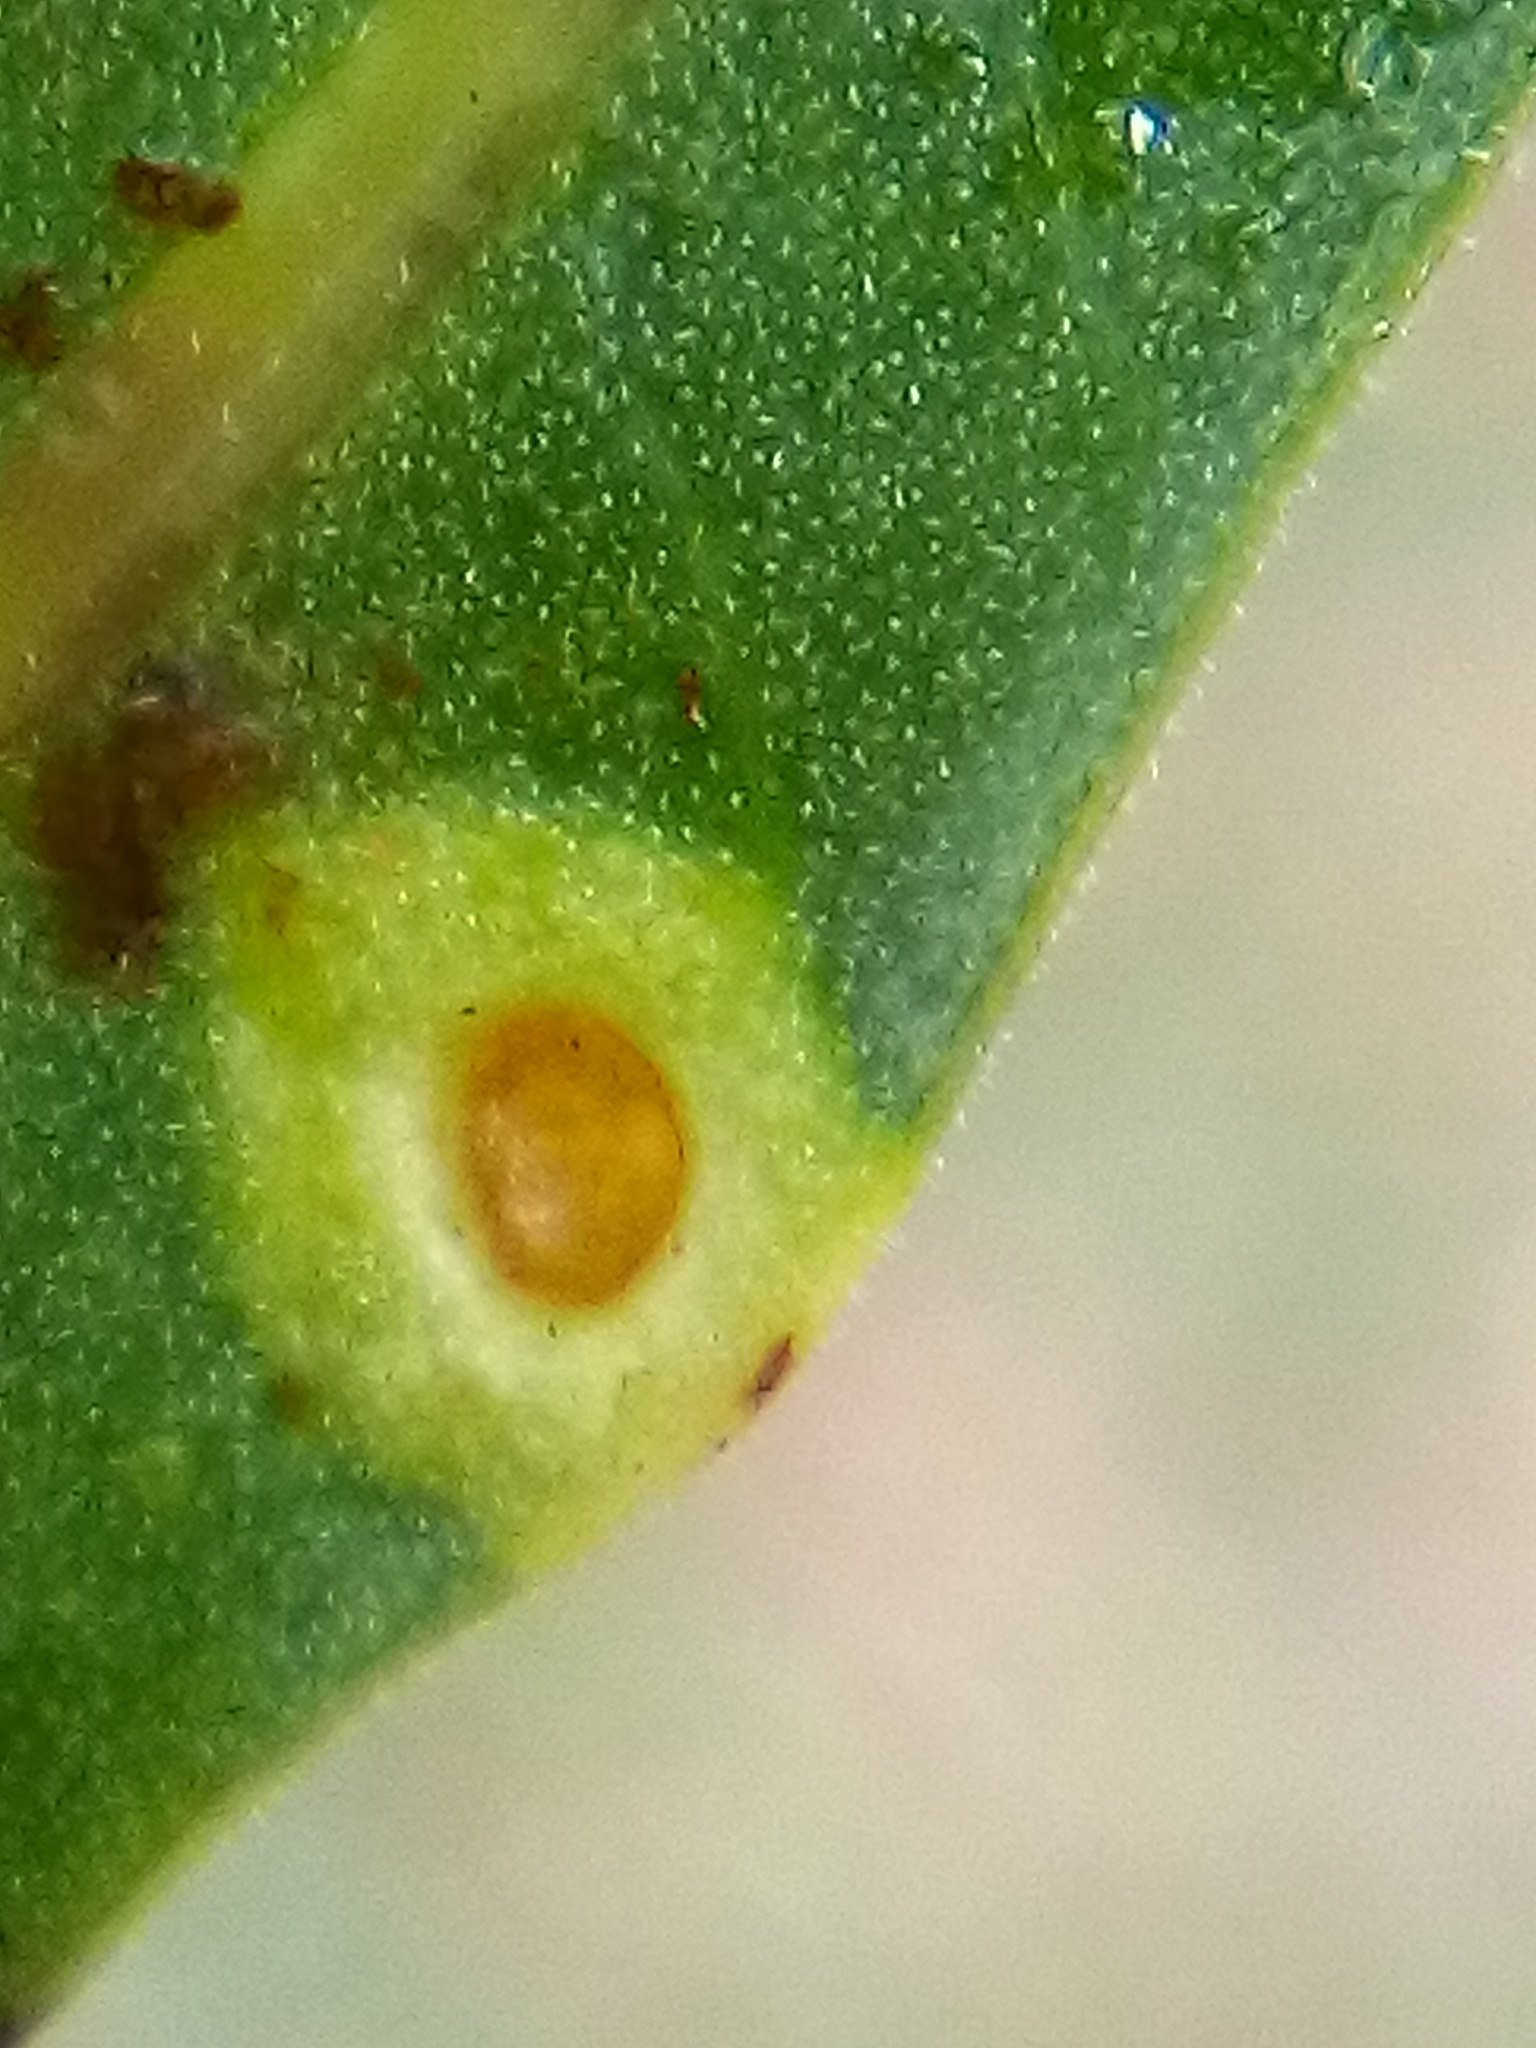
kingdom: Animalia
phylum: Arthropoda
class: Insecta
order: Hemiptera
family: Calophyidae
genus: Calophya
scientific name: Calophya schini
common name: Pepper tree psyllid
